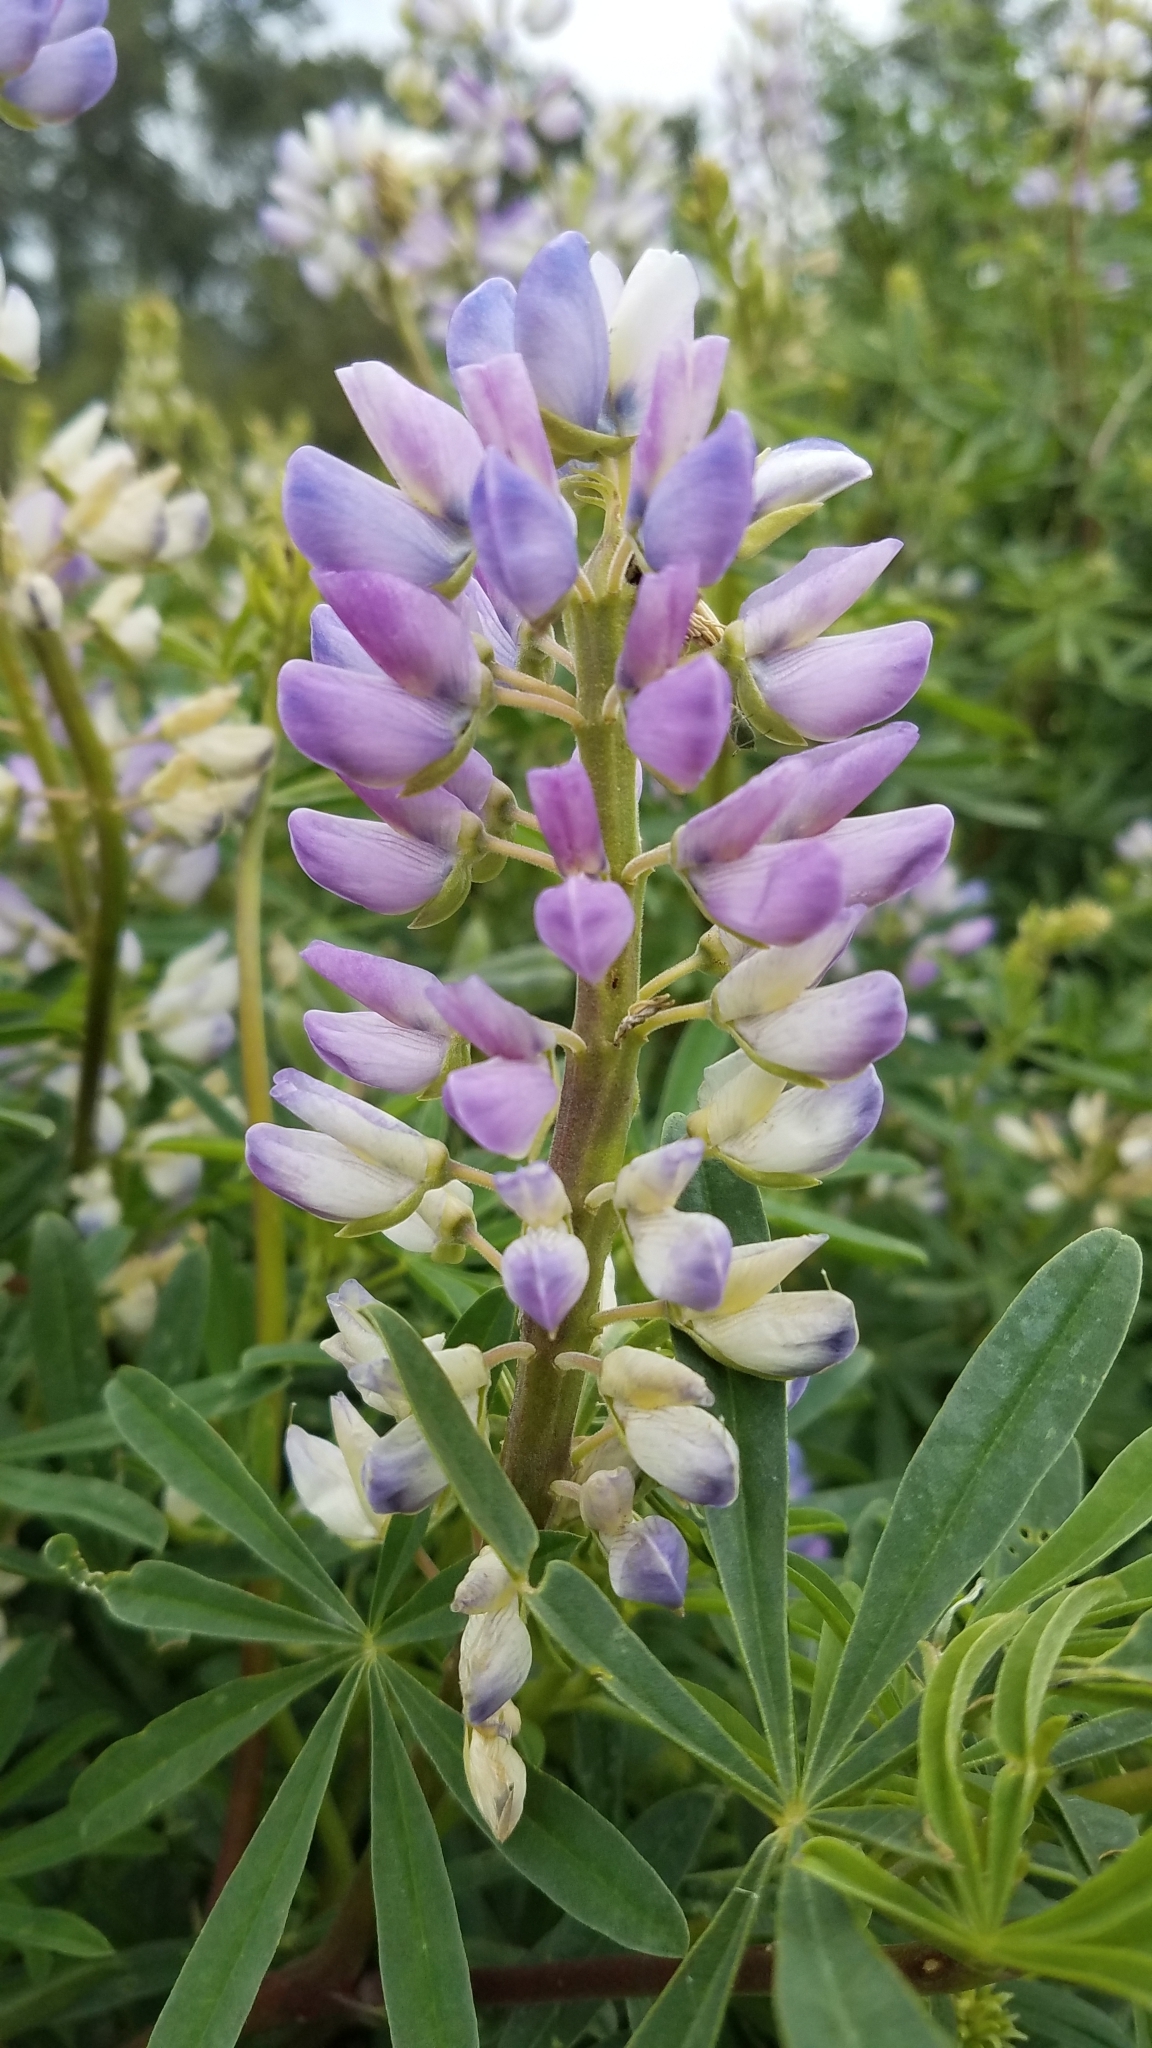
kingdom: Plantae
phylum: Tracheophyta
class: Magnoliopsida
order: Fabales
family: Fabaceae
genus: Lupinus
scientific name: Lupinus arboreus
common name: Yellow bush lupine
